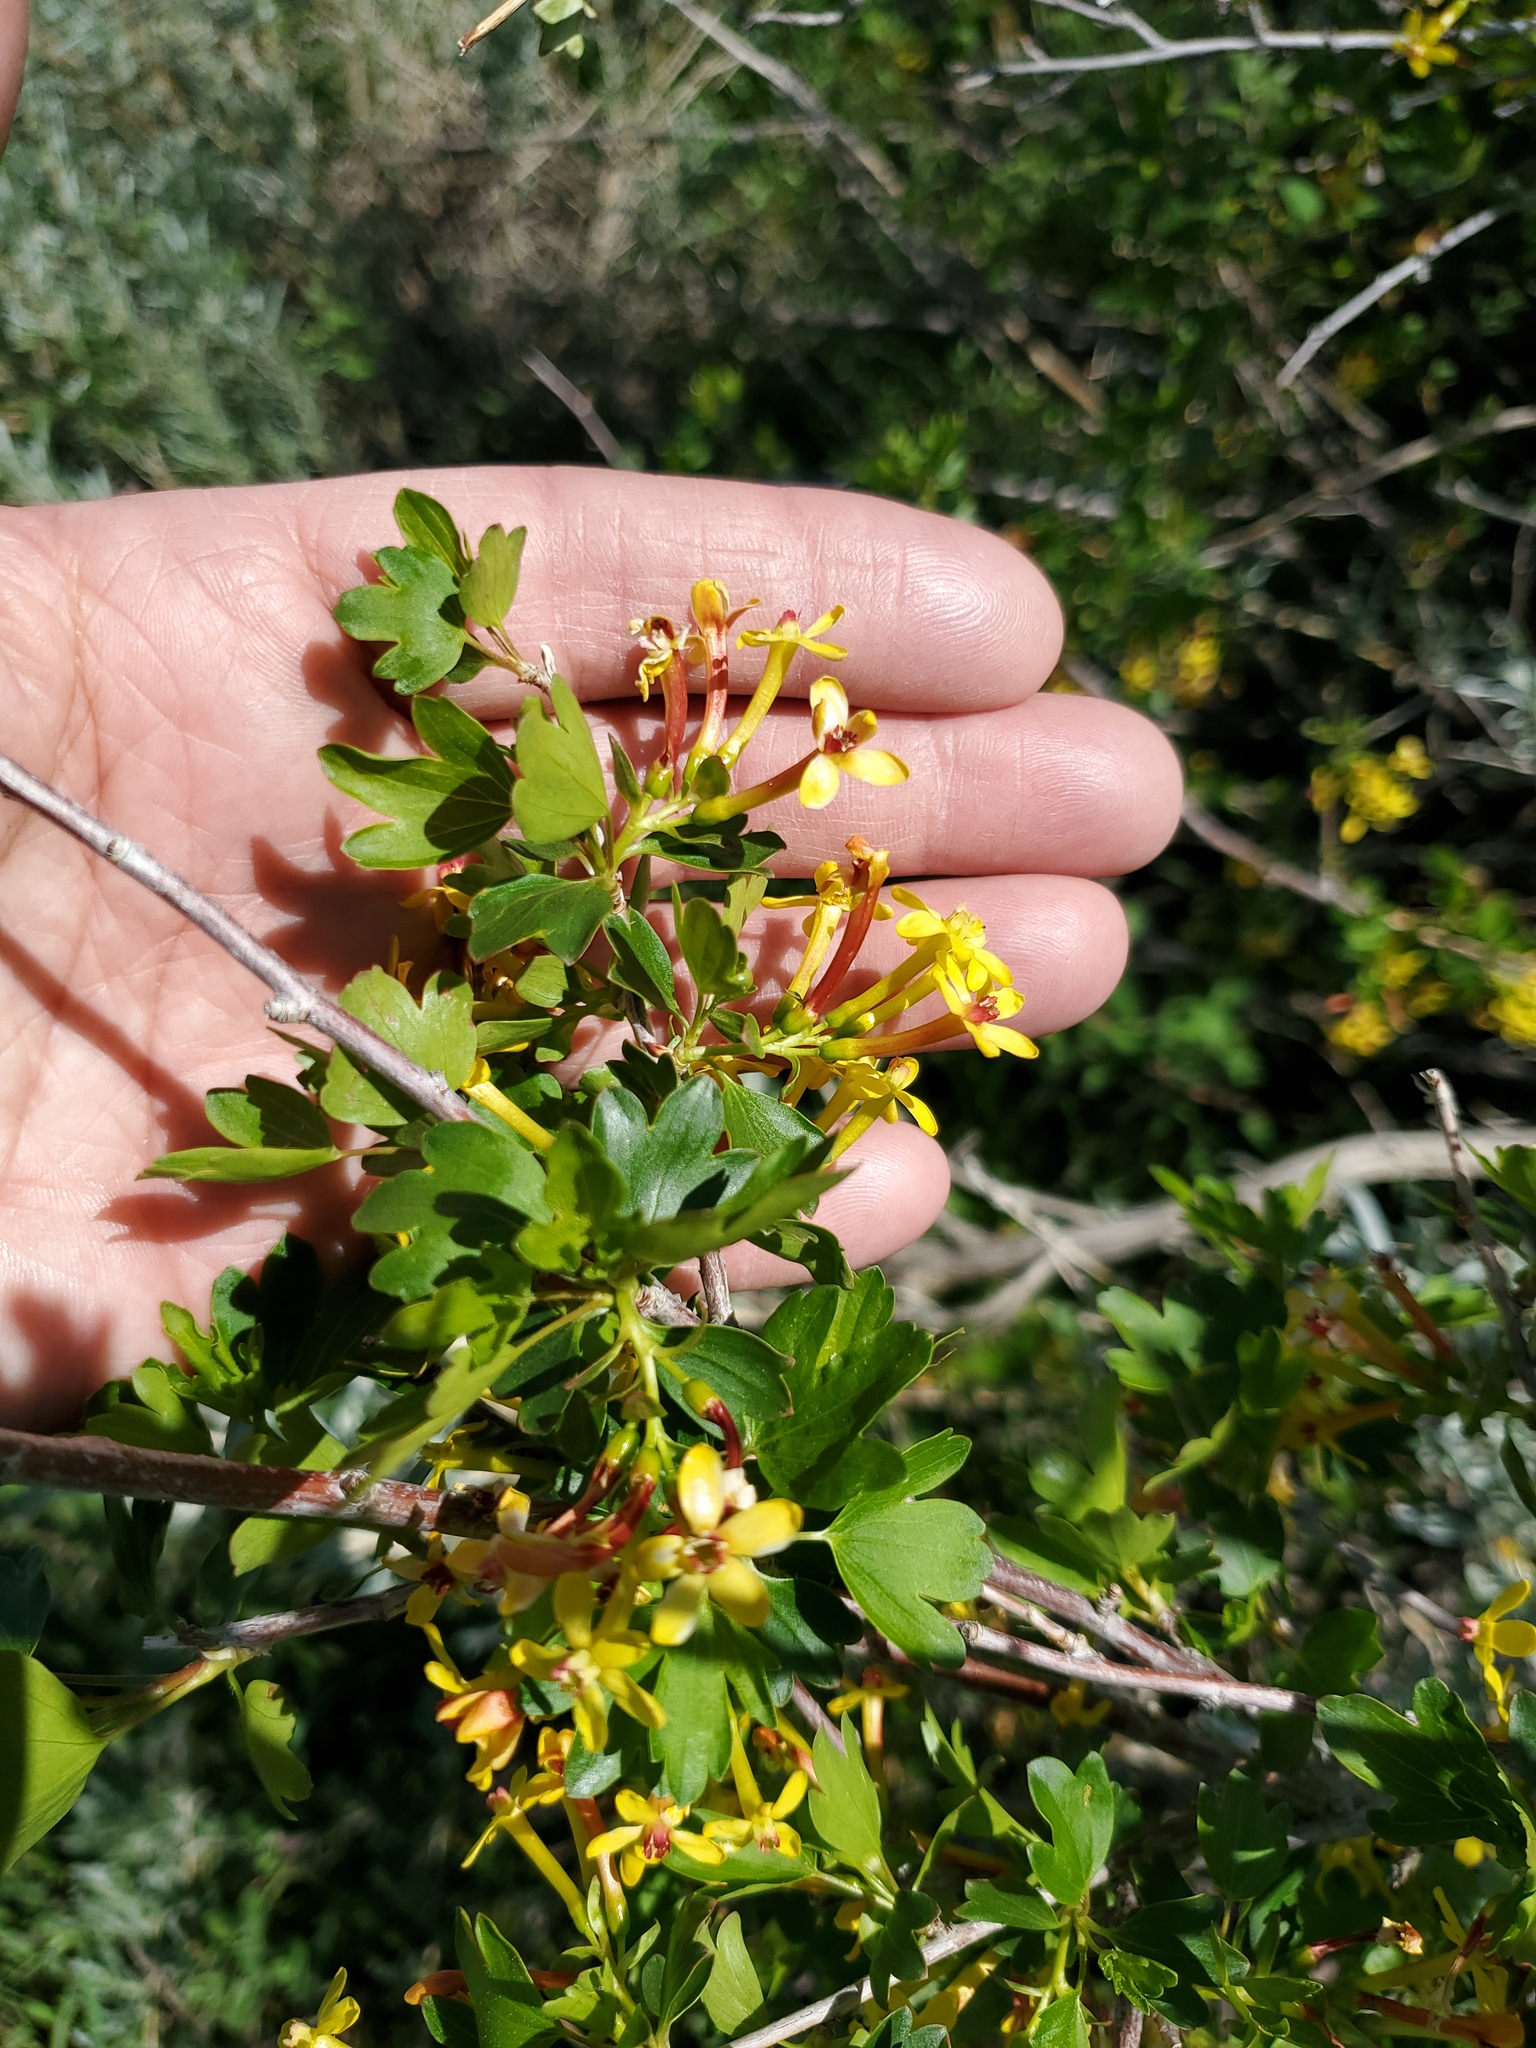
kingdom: Plantae
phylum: Tracheophyta
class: Magnoliopsida
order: Saxifragales
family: Grossulariaceae
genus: Ribes
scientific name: Ribes aureum
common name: Golden currant
